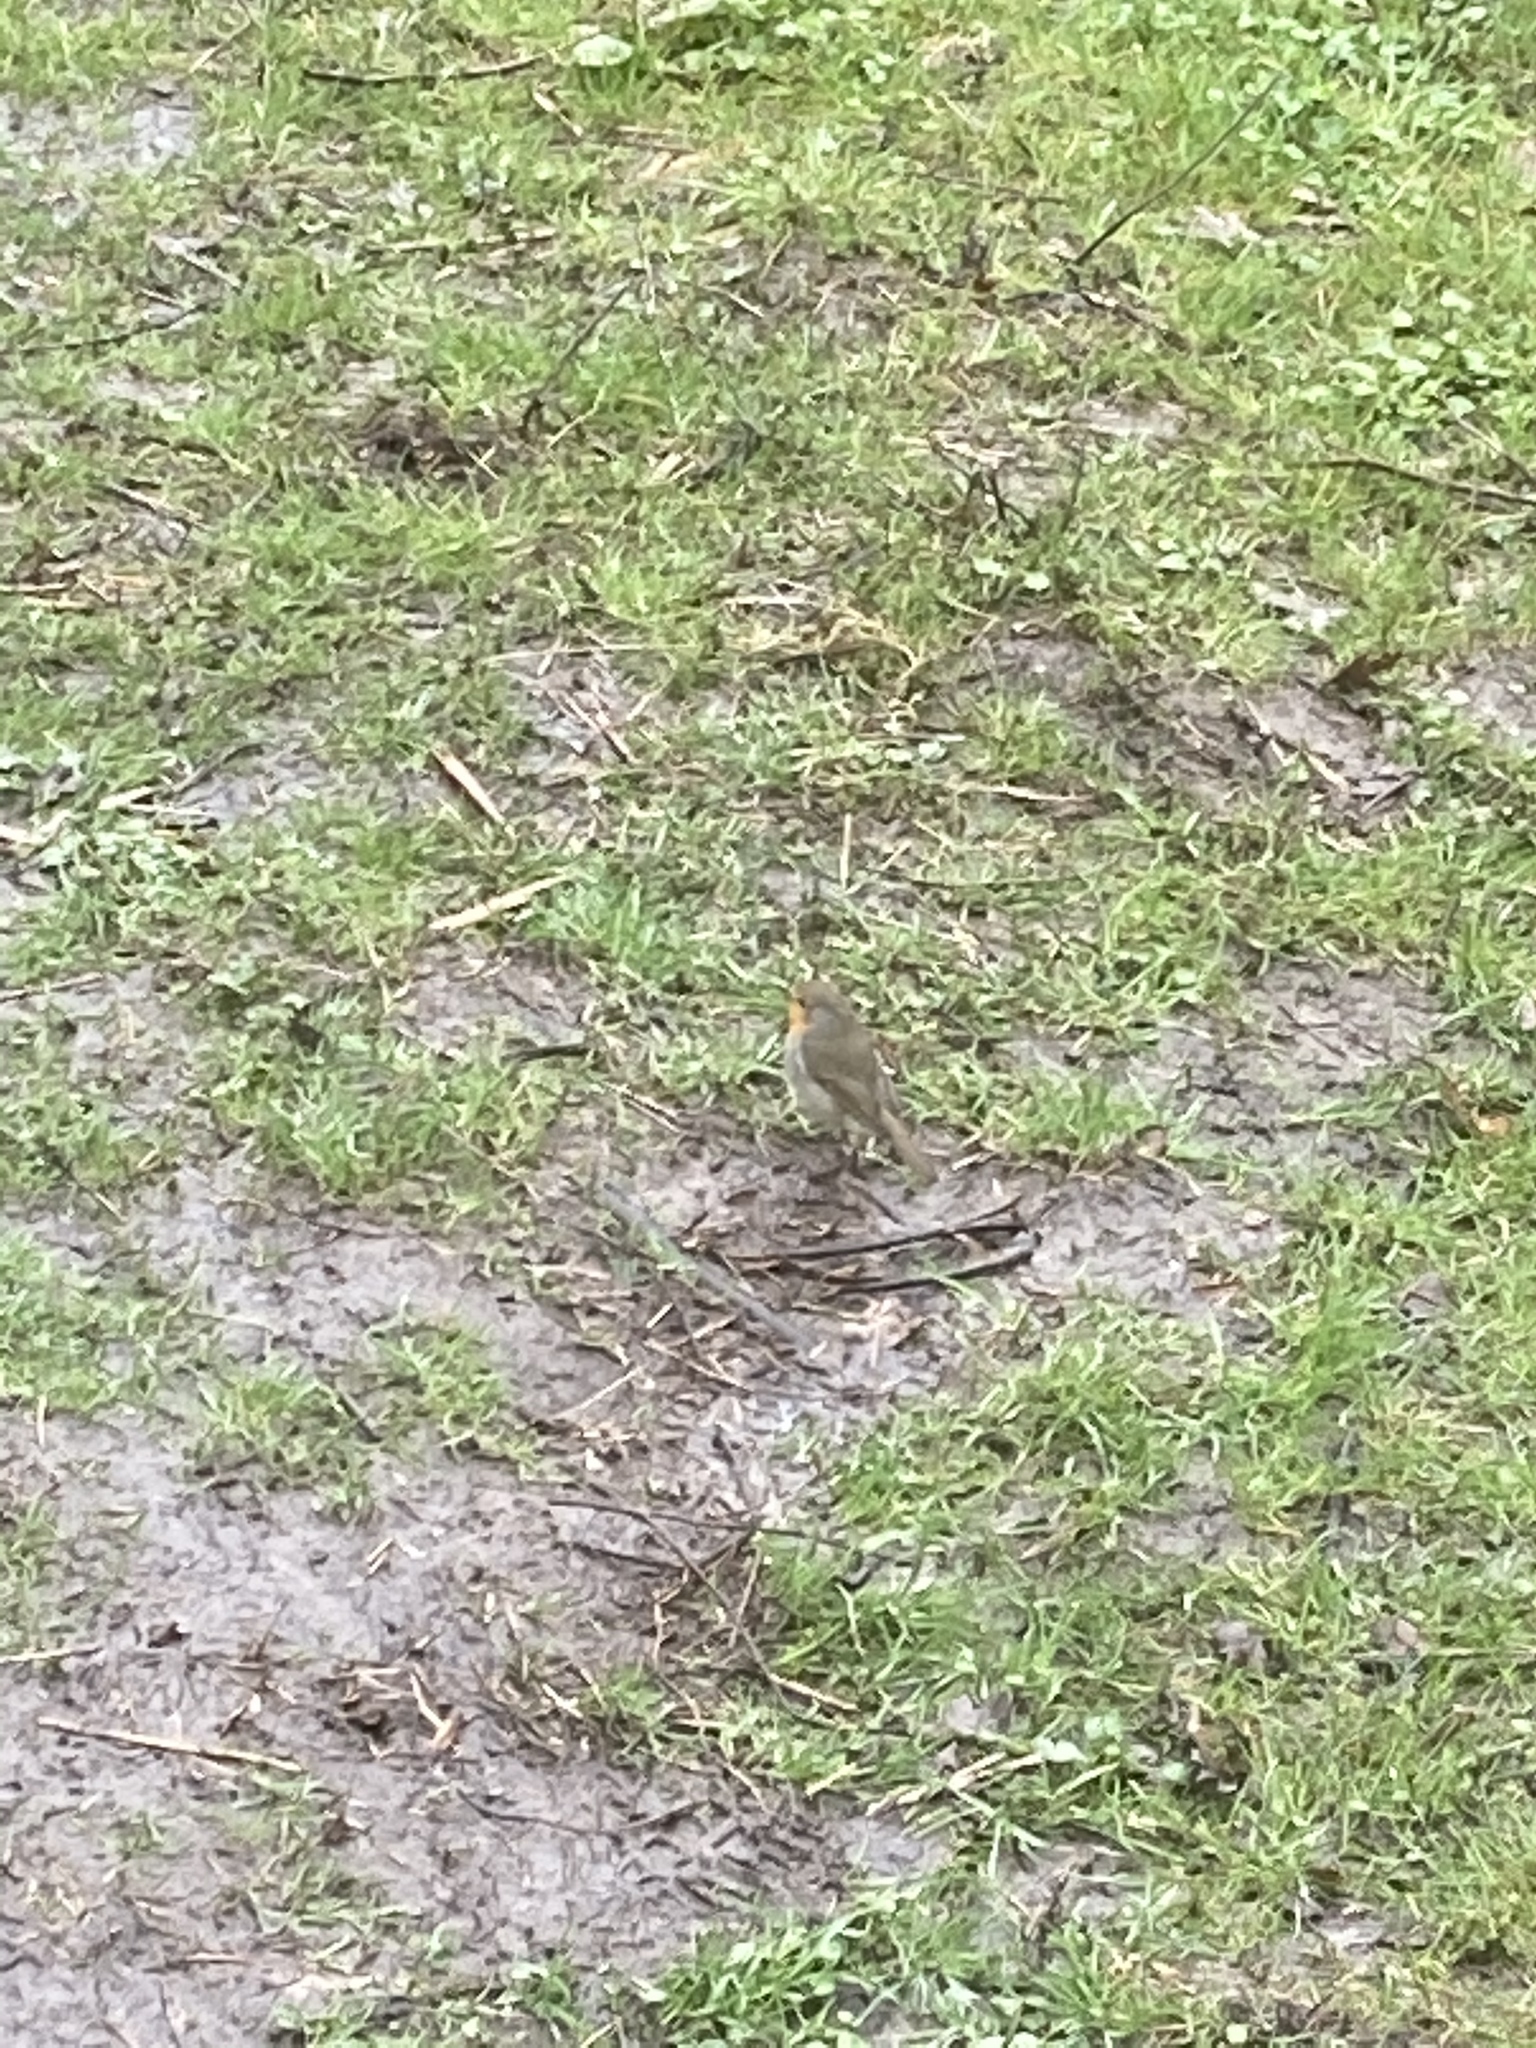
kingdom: Animalia
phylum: Chordata
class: Aves
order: Passeriformes
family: Muscicapidae
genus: Erithacus
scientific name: Erithacus rubecula
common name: European robin
